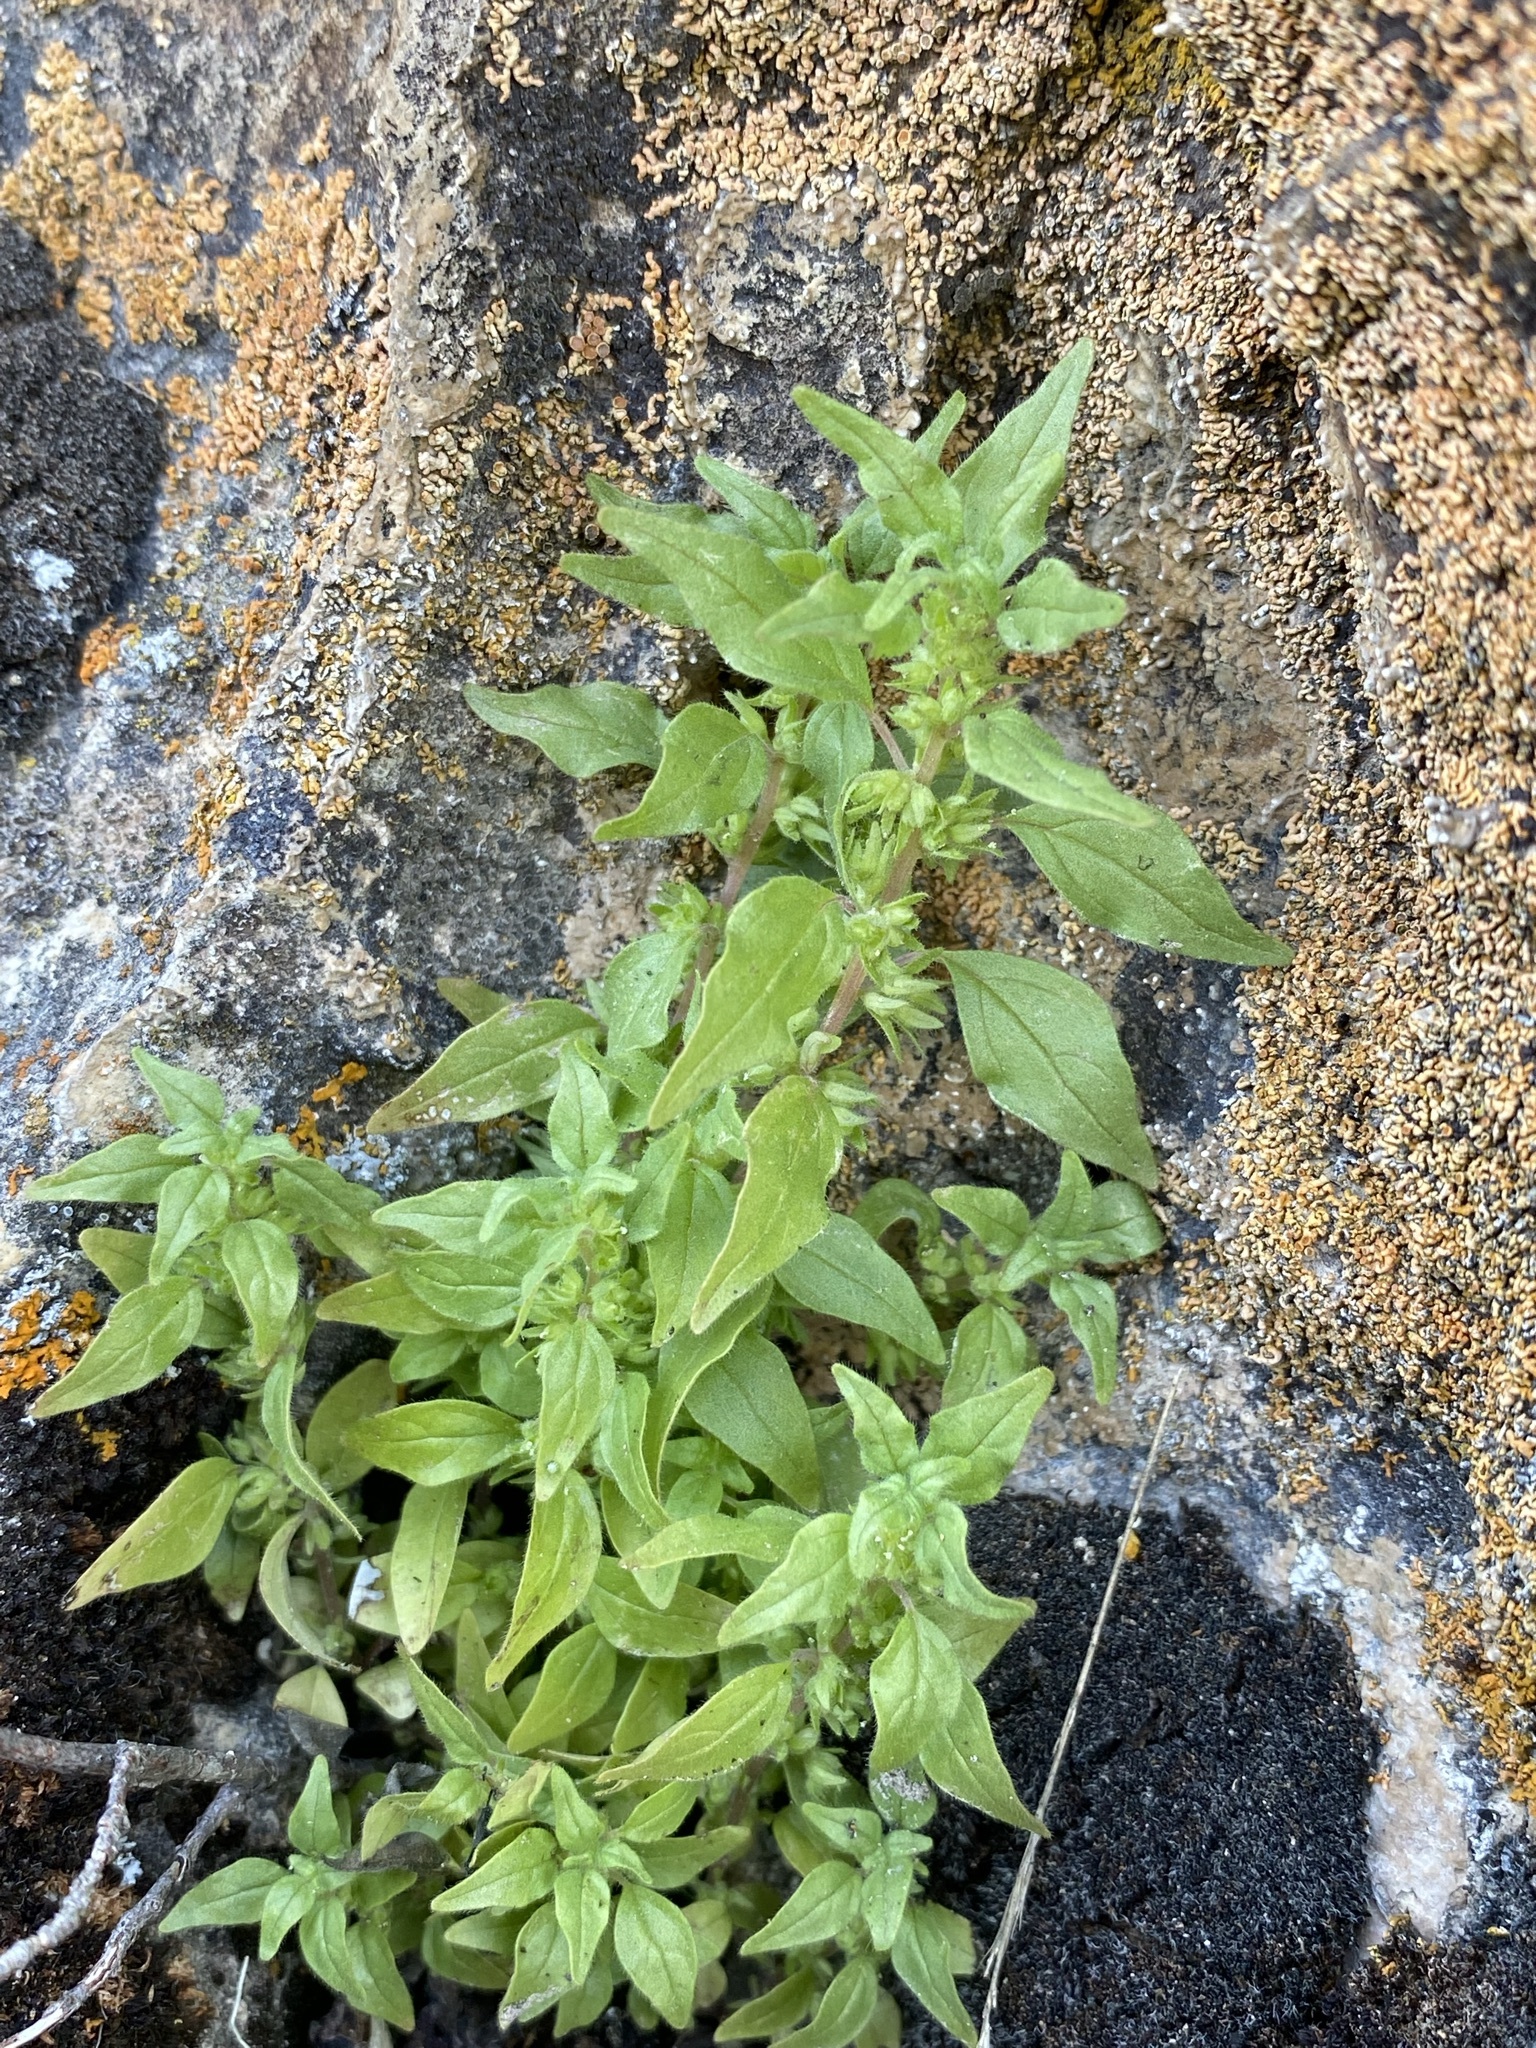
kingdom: Plantae
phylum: Tracheophyta
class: Magnoliopsida
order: Rosales
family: Urticaceae
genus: Parietaria
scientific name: Parietaria pensylvanica
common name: Pennsylvania pellitory
